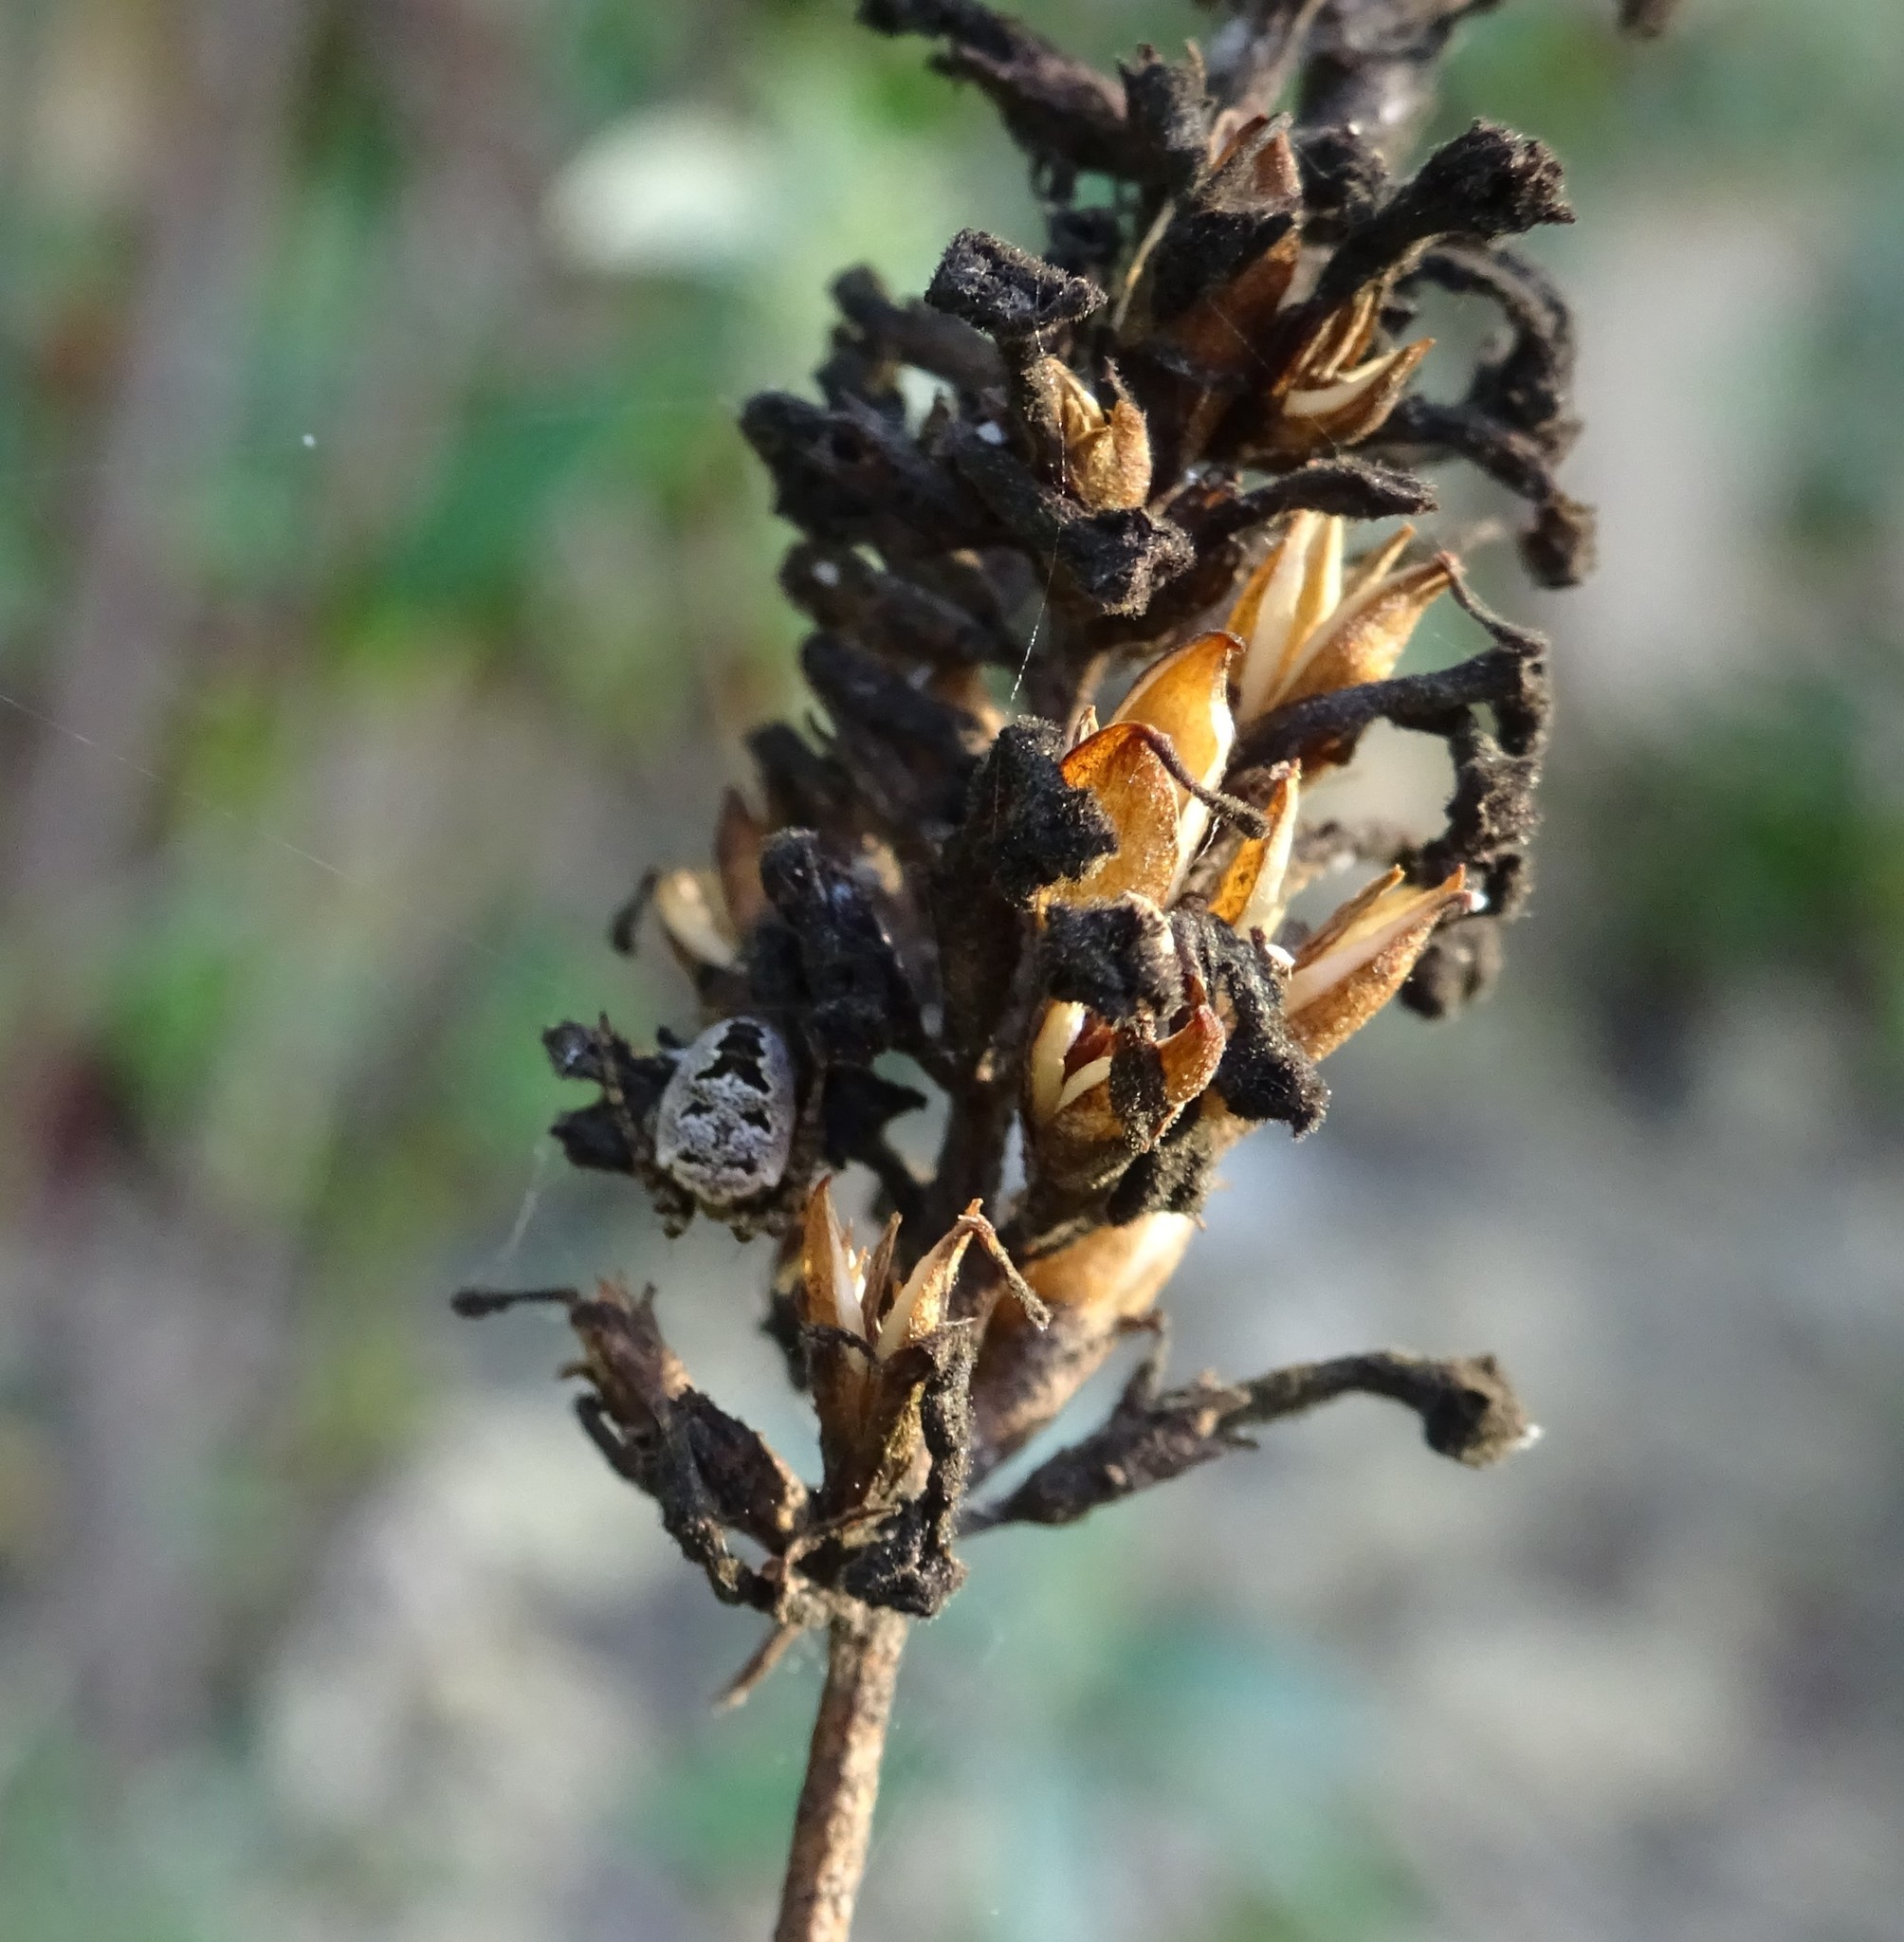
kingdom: Animalia
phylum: Arthropoda
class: Arachnida
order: Araneae
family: Araneidae
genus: Zilla
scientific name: Zilla diodia
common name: Zilla diodia
